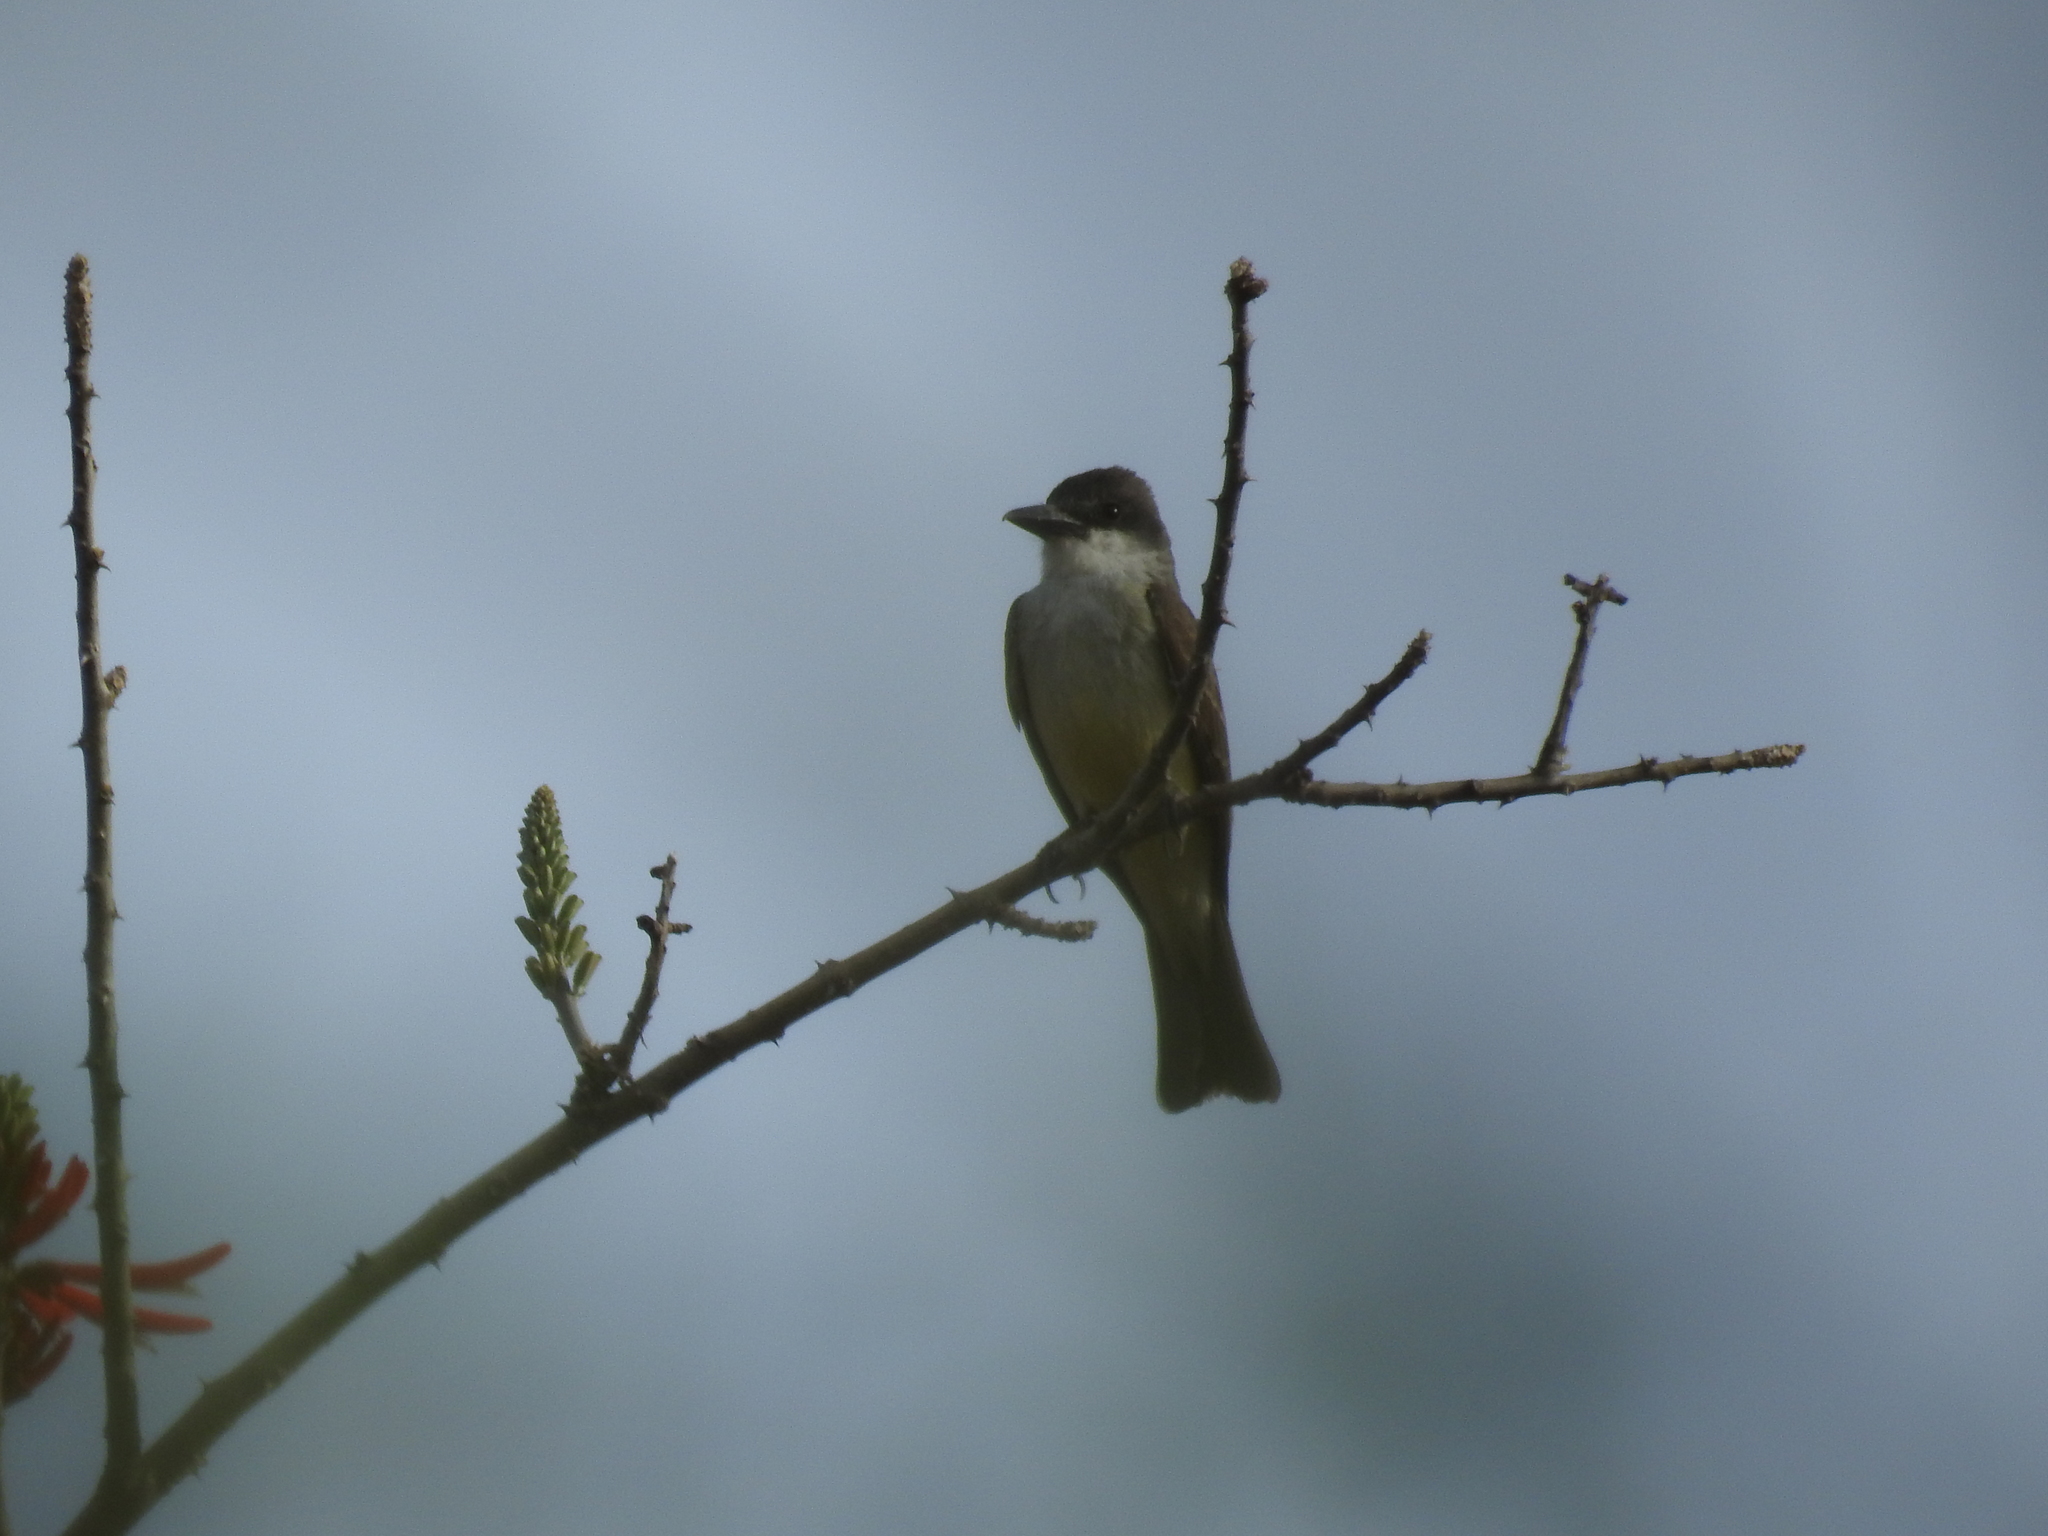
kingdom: Animalia
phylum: Chordata
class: Aves
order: Passeriformes
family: Tyrannidae
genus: Tyrannus
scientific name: Tyrannus crassirostris
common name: Thick-billed kingbird
